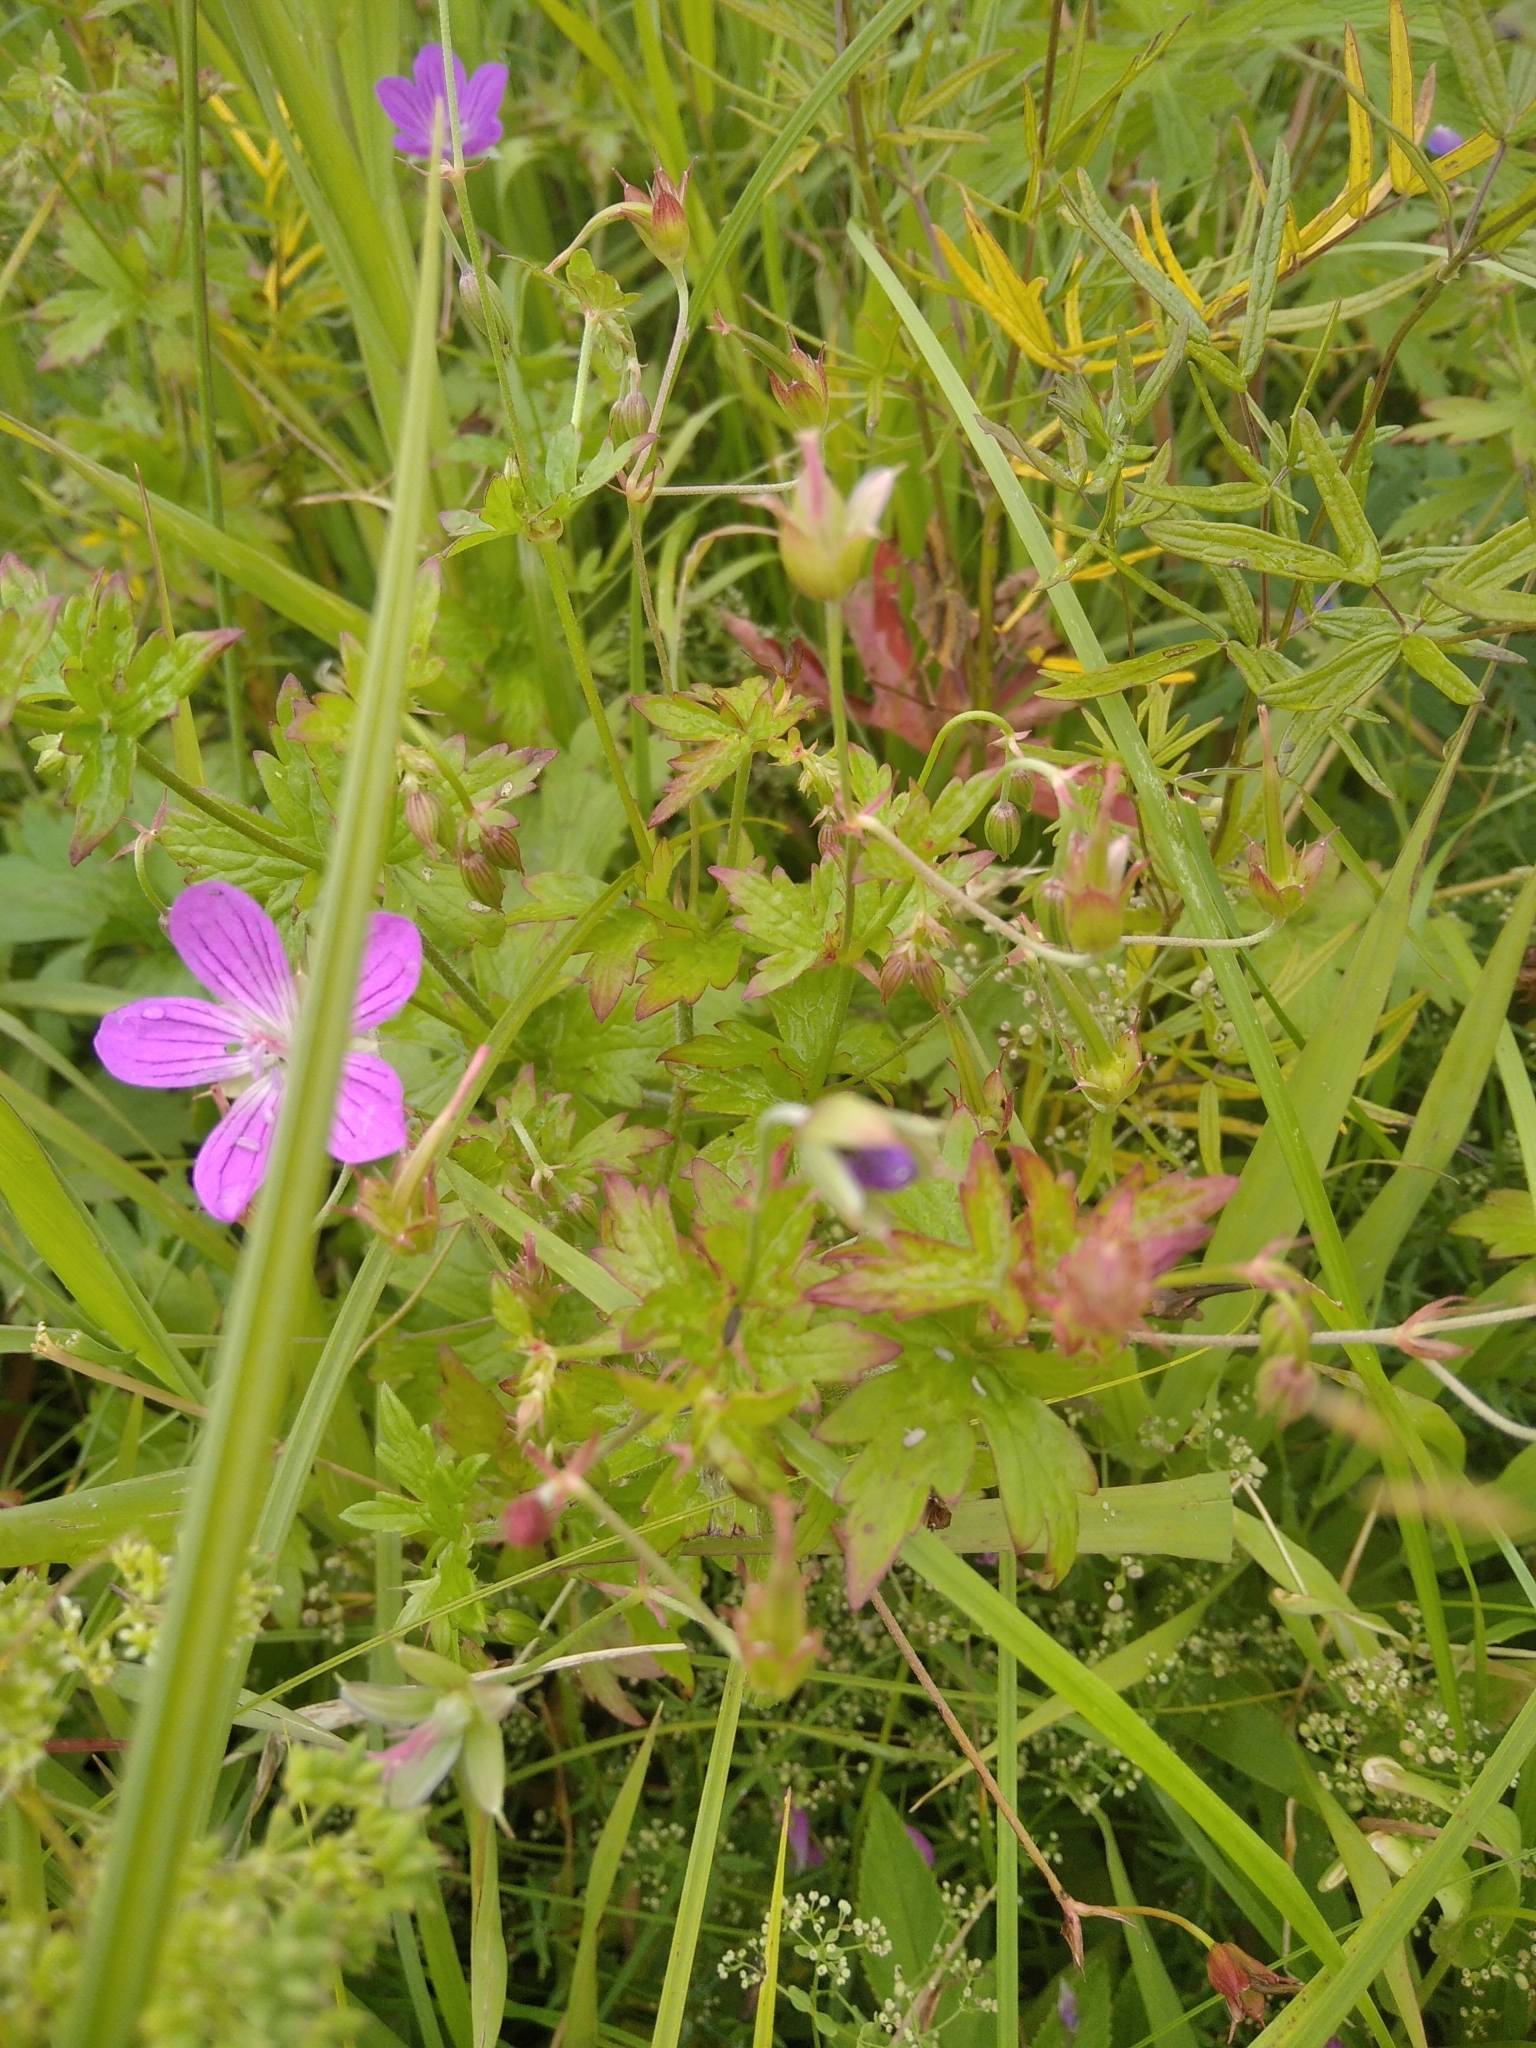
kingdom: Plantae
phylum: Tracheophyta
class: Magnoliopsida
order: Geraniales
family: Geraniaceae
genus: Geranium
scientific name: Geranium palustre
